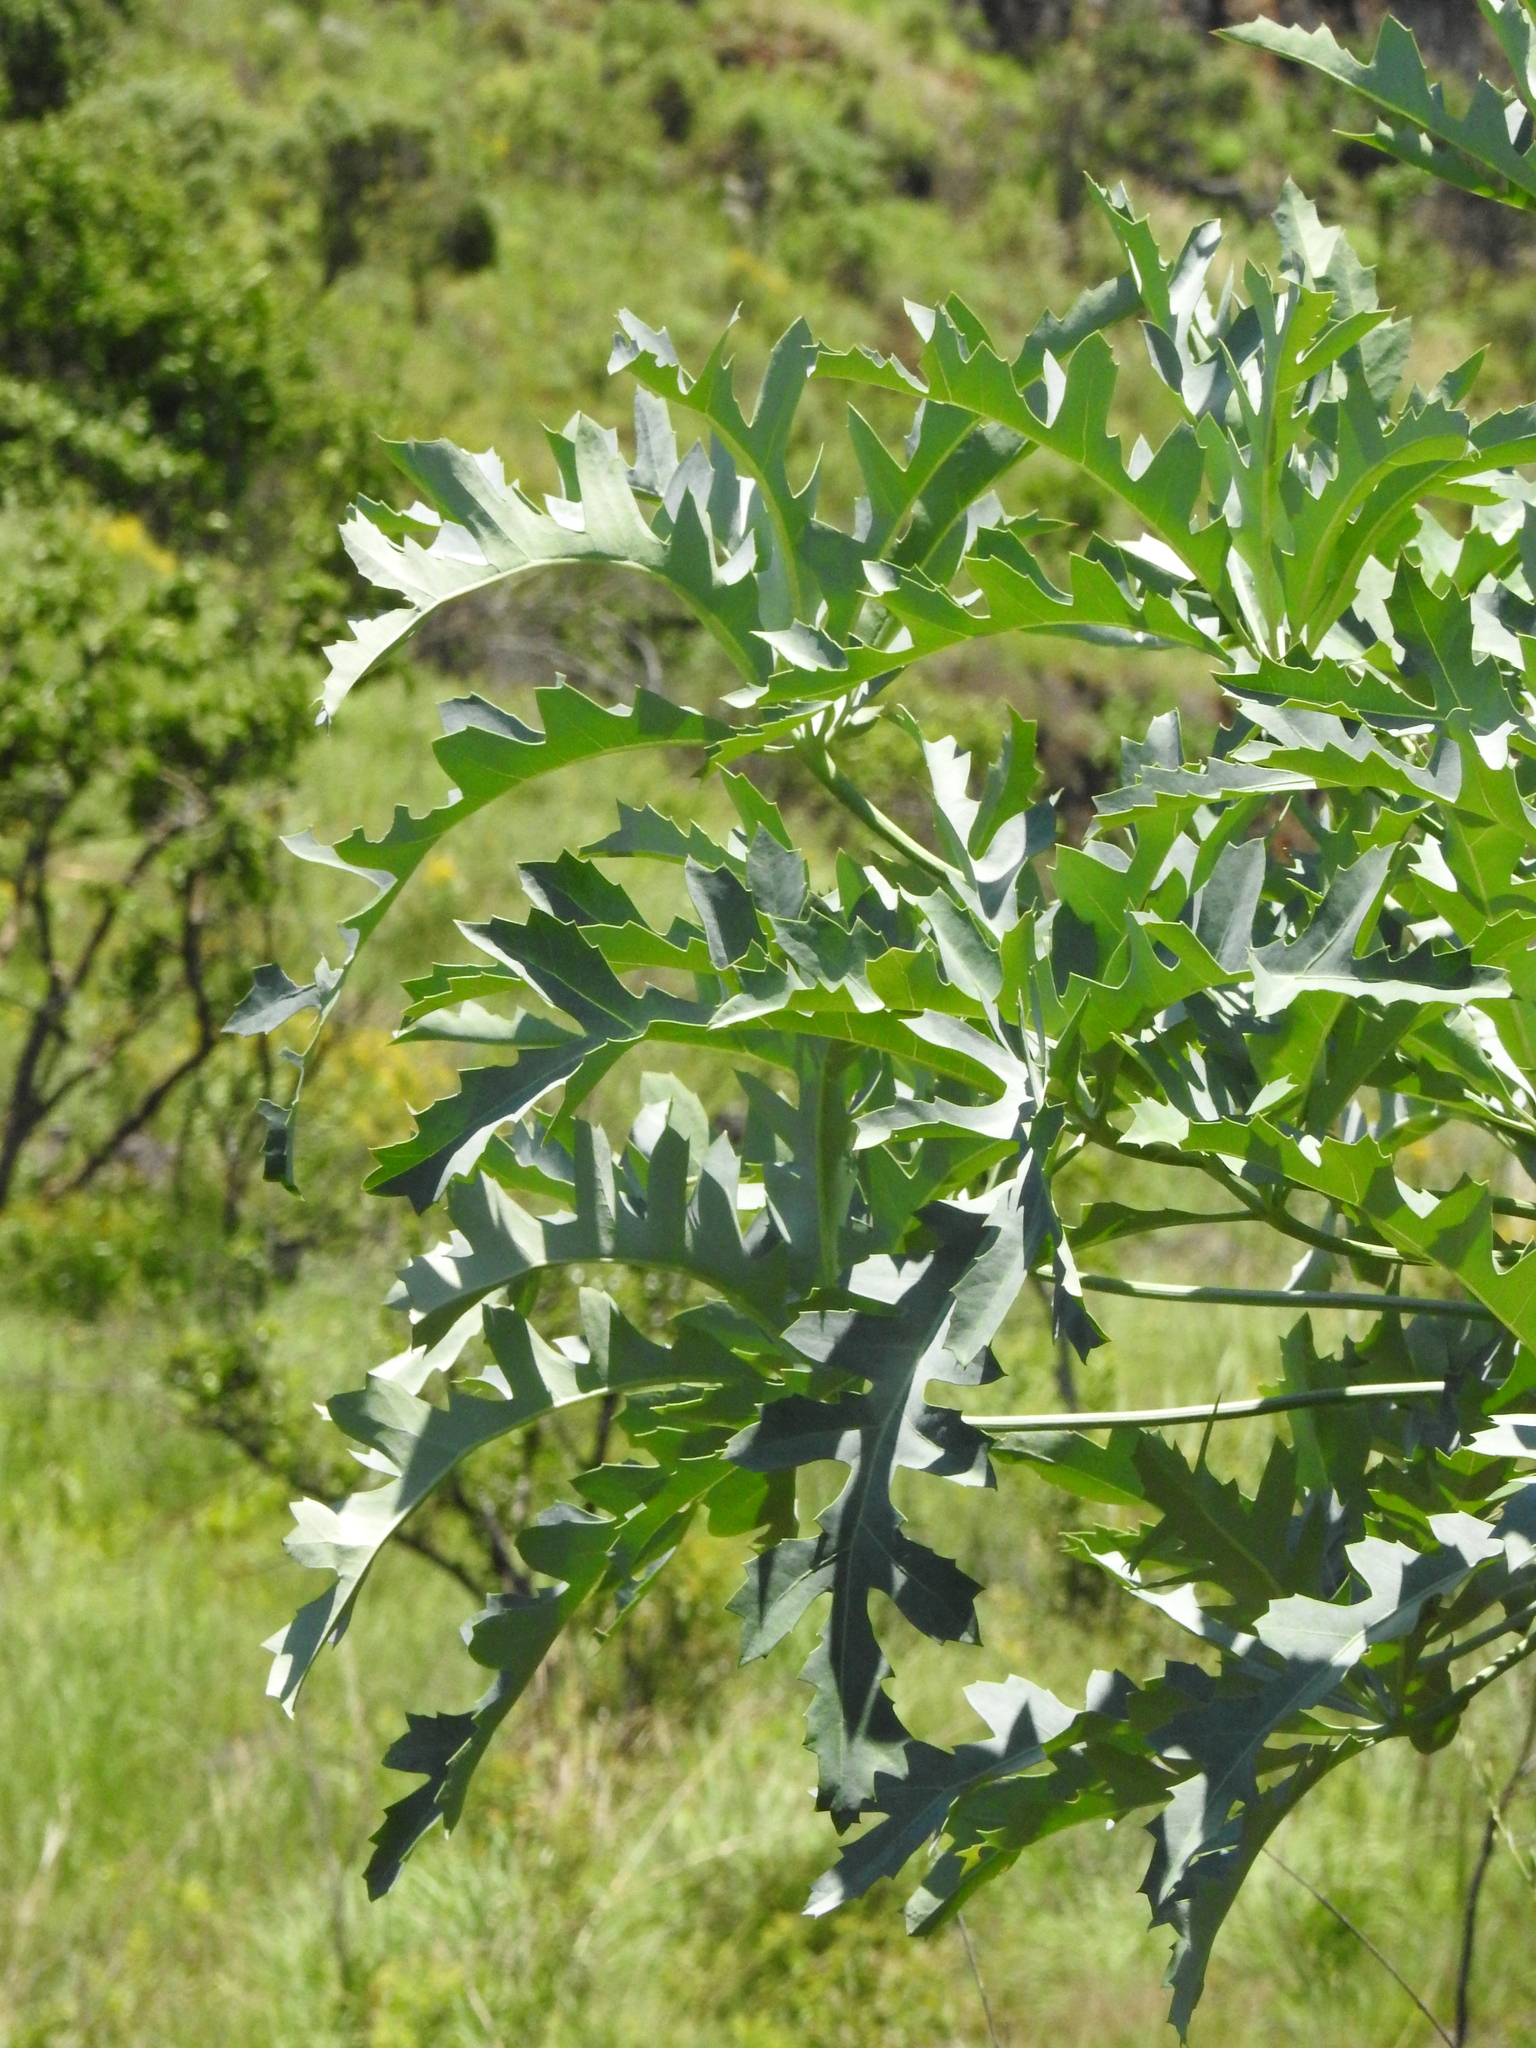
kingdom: Plantae
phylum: Tracheophyta
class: Magnoliopsida
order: Apiales
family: Araliaceae
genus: Cussonia
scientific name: Cussonia paniculata
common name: Cabbagetree
